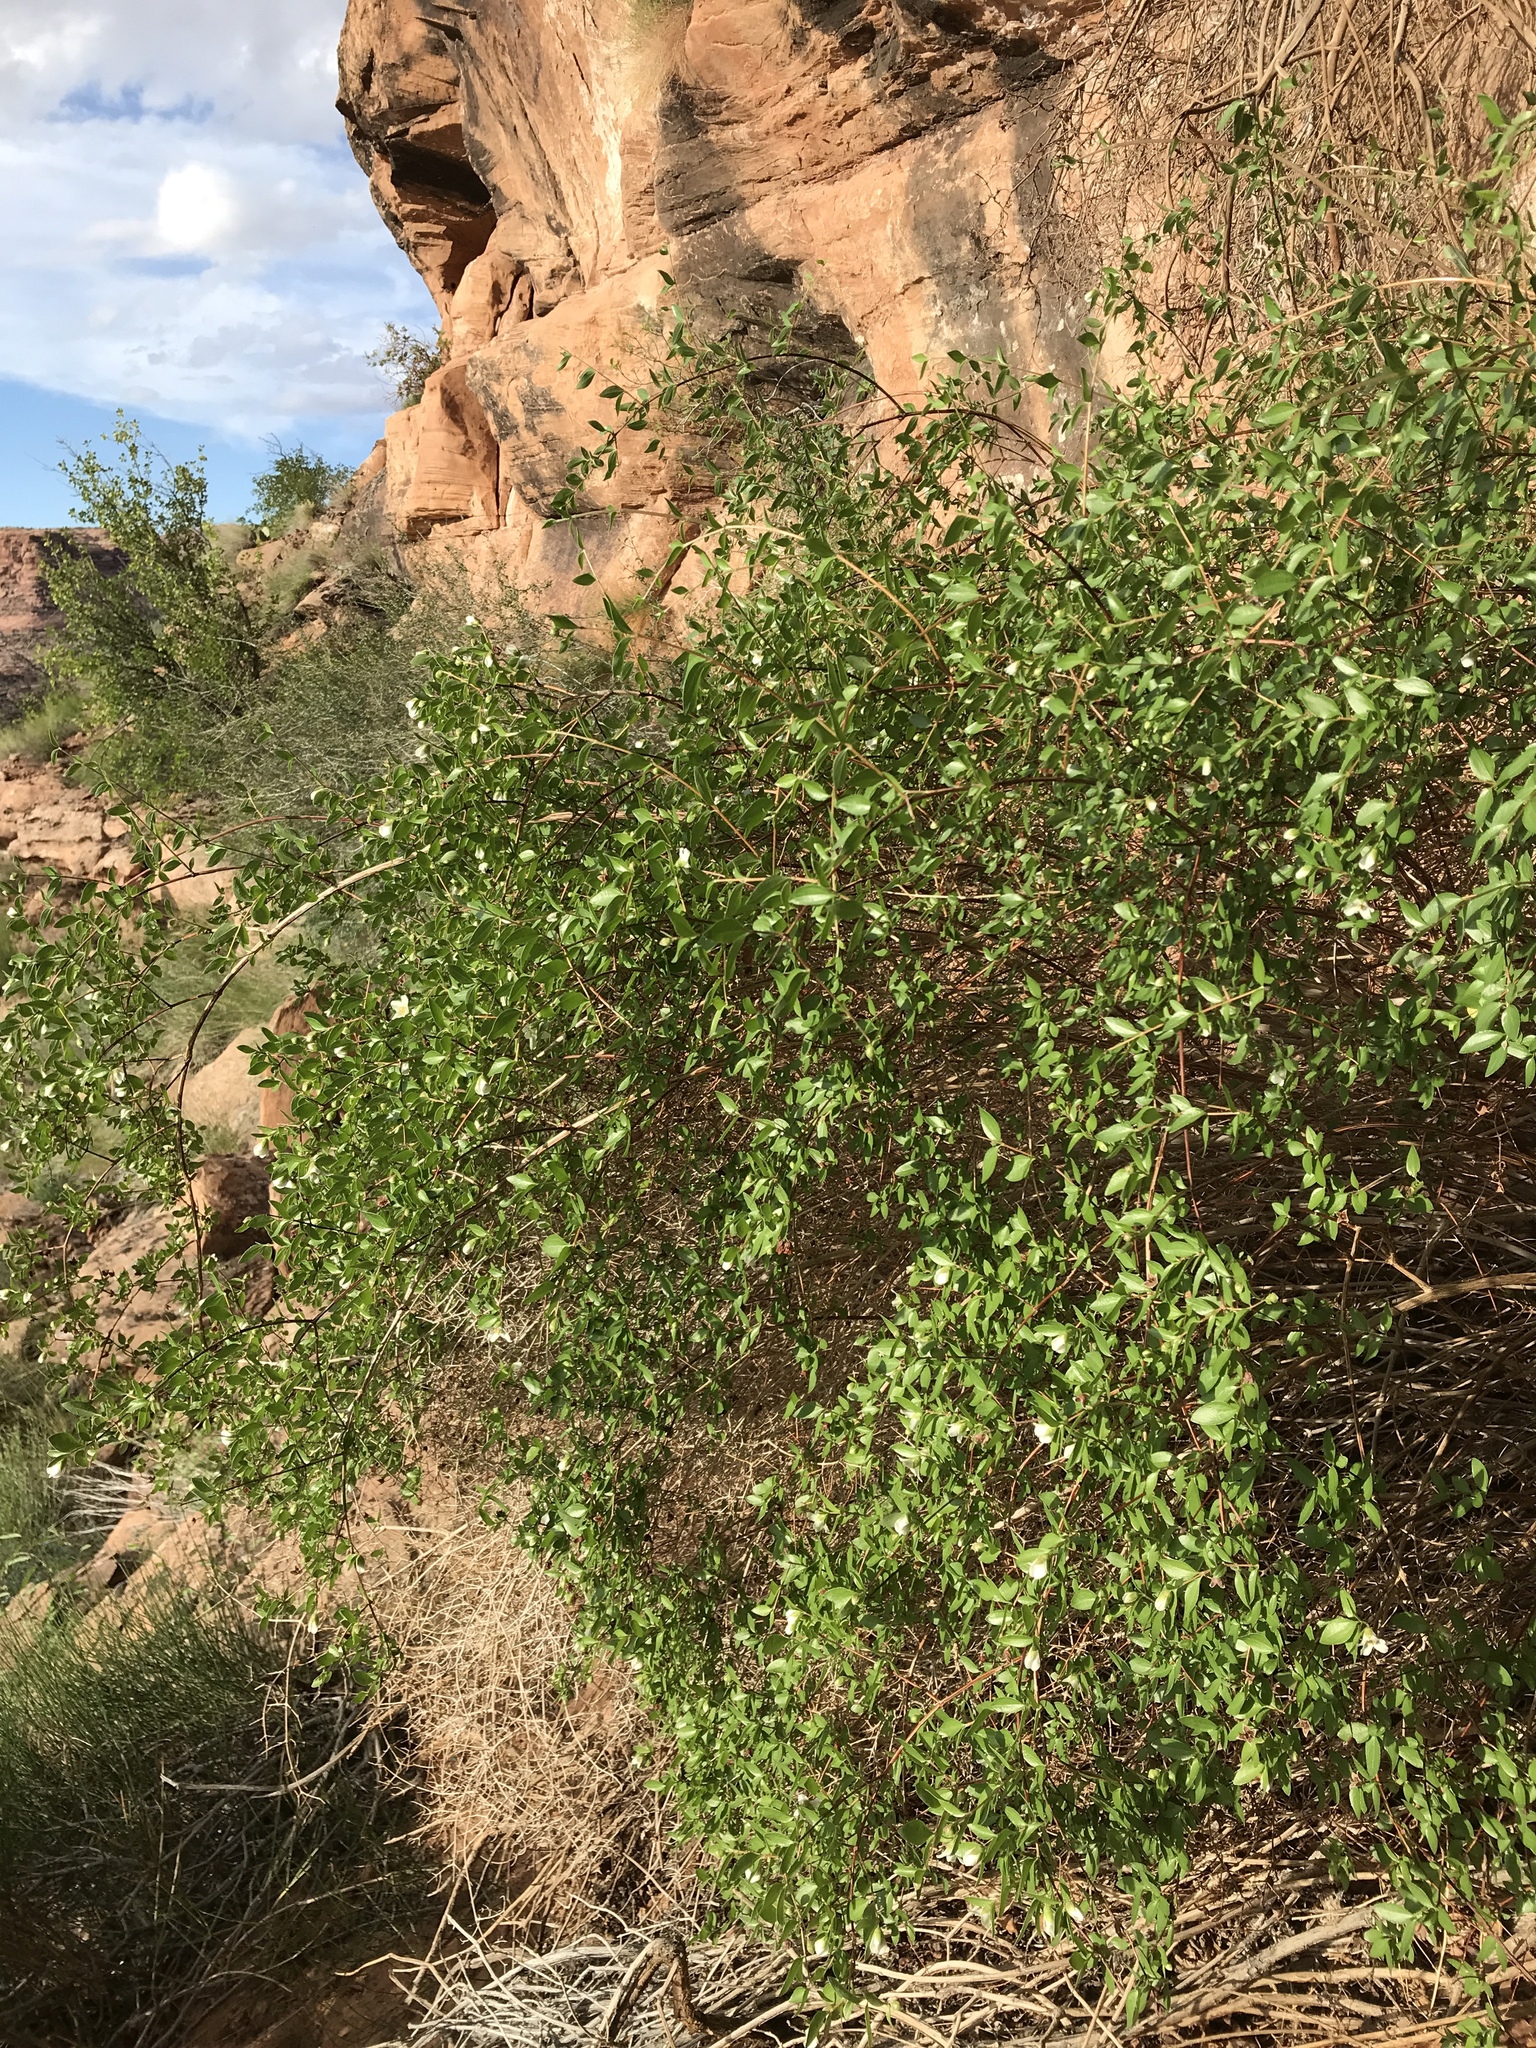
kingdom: Plantae
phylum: Tracheophyta
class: Magnoliopsida
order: Cornales
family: Hydrangeaceae
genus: Philadelphus
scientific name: Philadelphus microphyllus
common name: Desert mock orange
